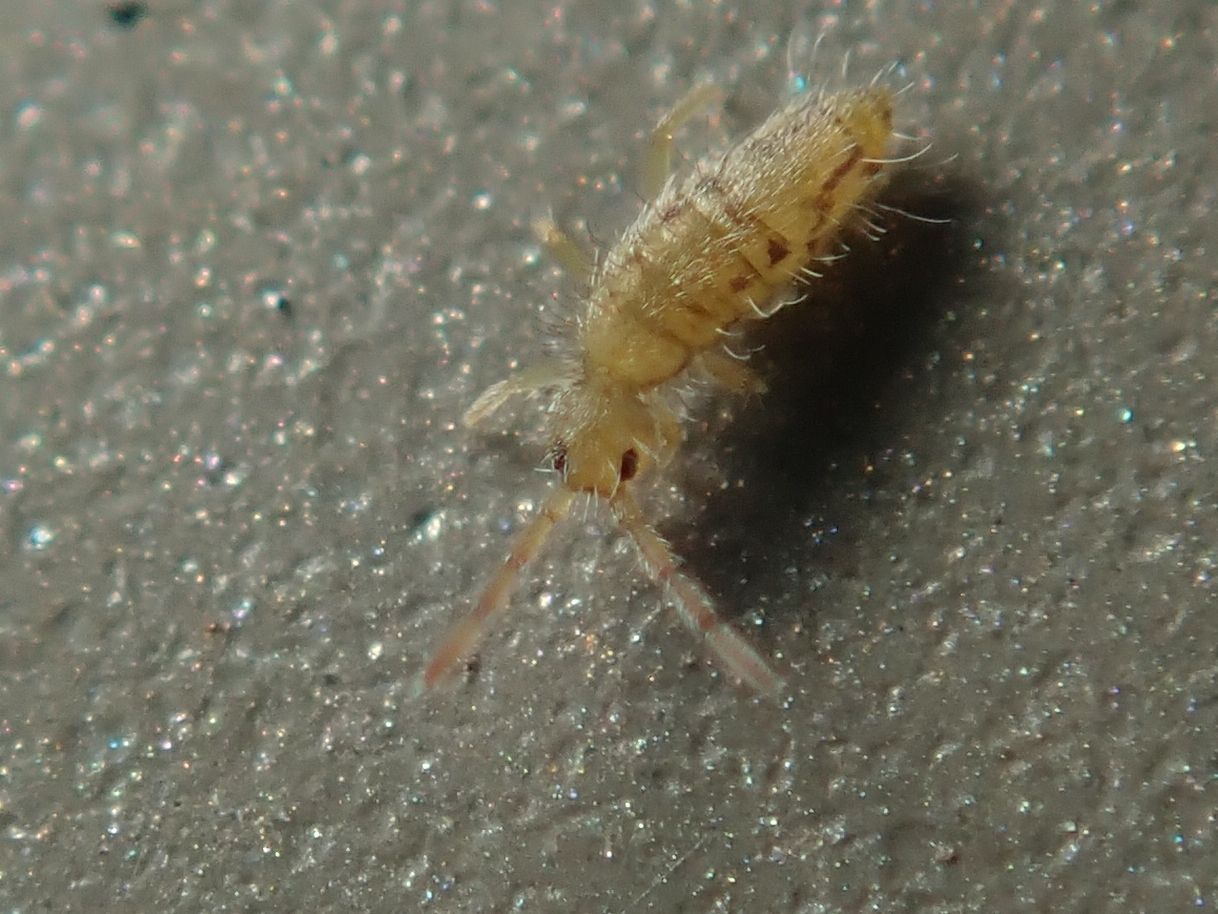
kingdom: Animalia
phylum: Arthropoda
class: Collembola
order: Entomobryomorpha
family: Entomobryidae
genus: Entomobrya
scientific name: Entomobrya nivalis
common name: Cosmopolitan springtail
